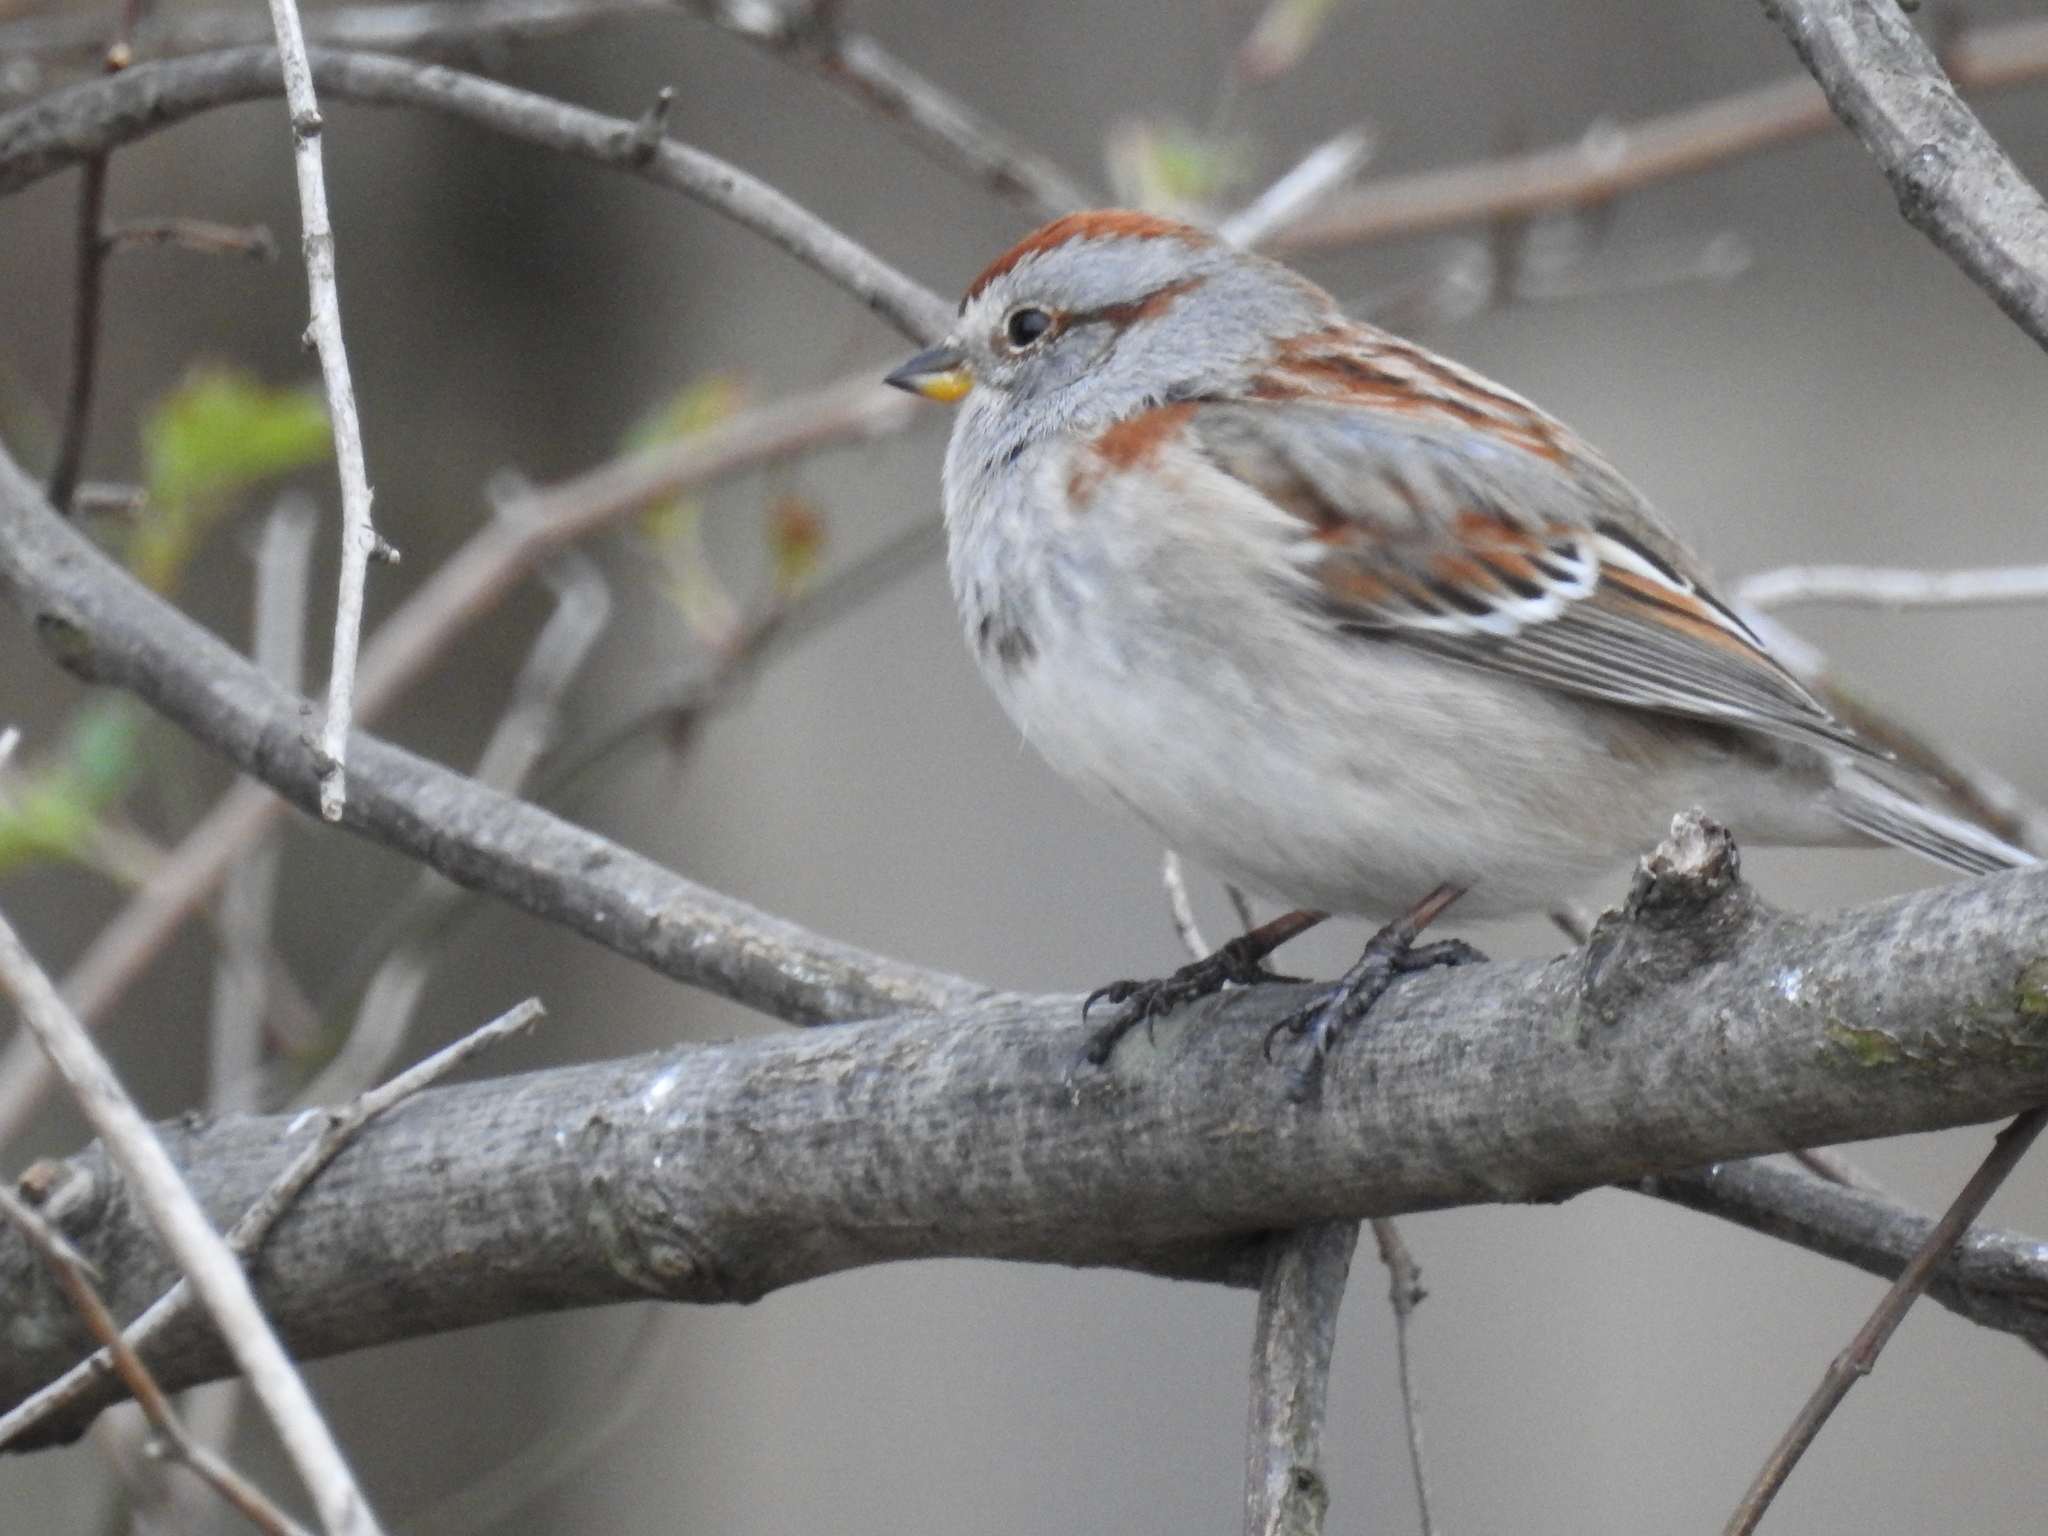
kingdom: Animalia
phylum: Chordata
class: Aves
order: Passeriformes
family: Passerellidae
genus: Spizelloides
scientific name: Spizelloides arborea
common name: American tree sparrow
